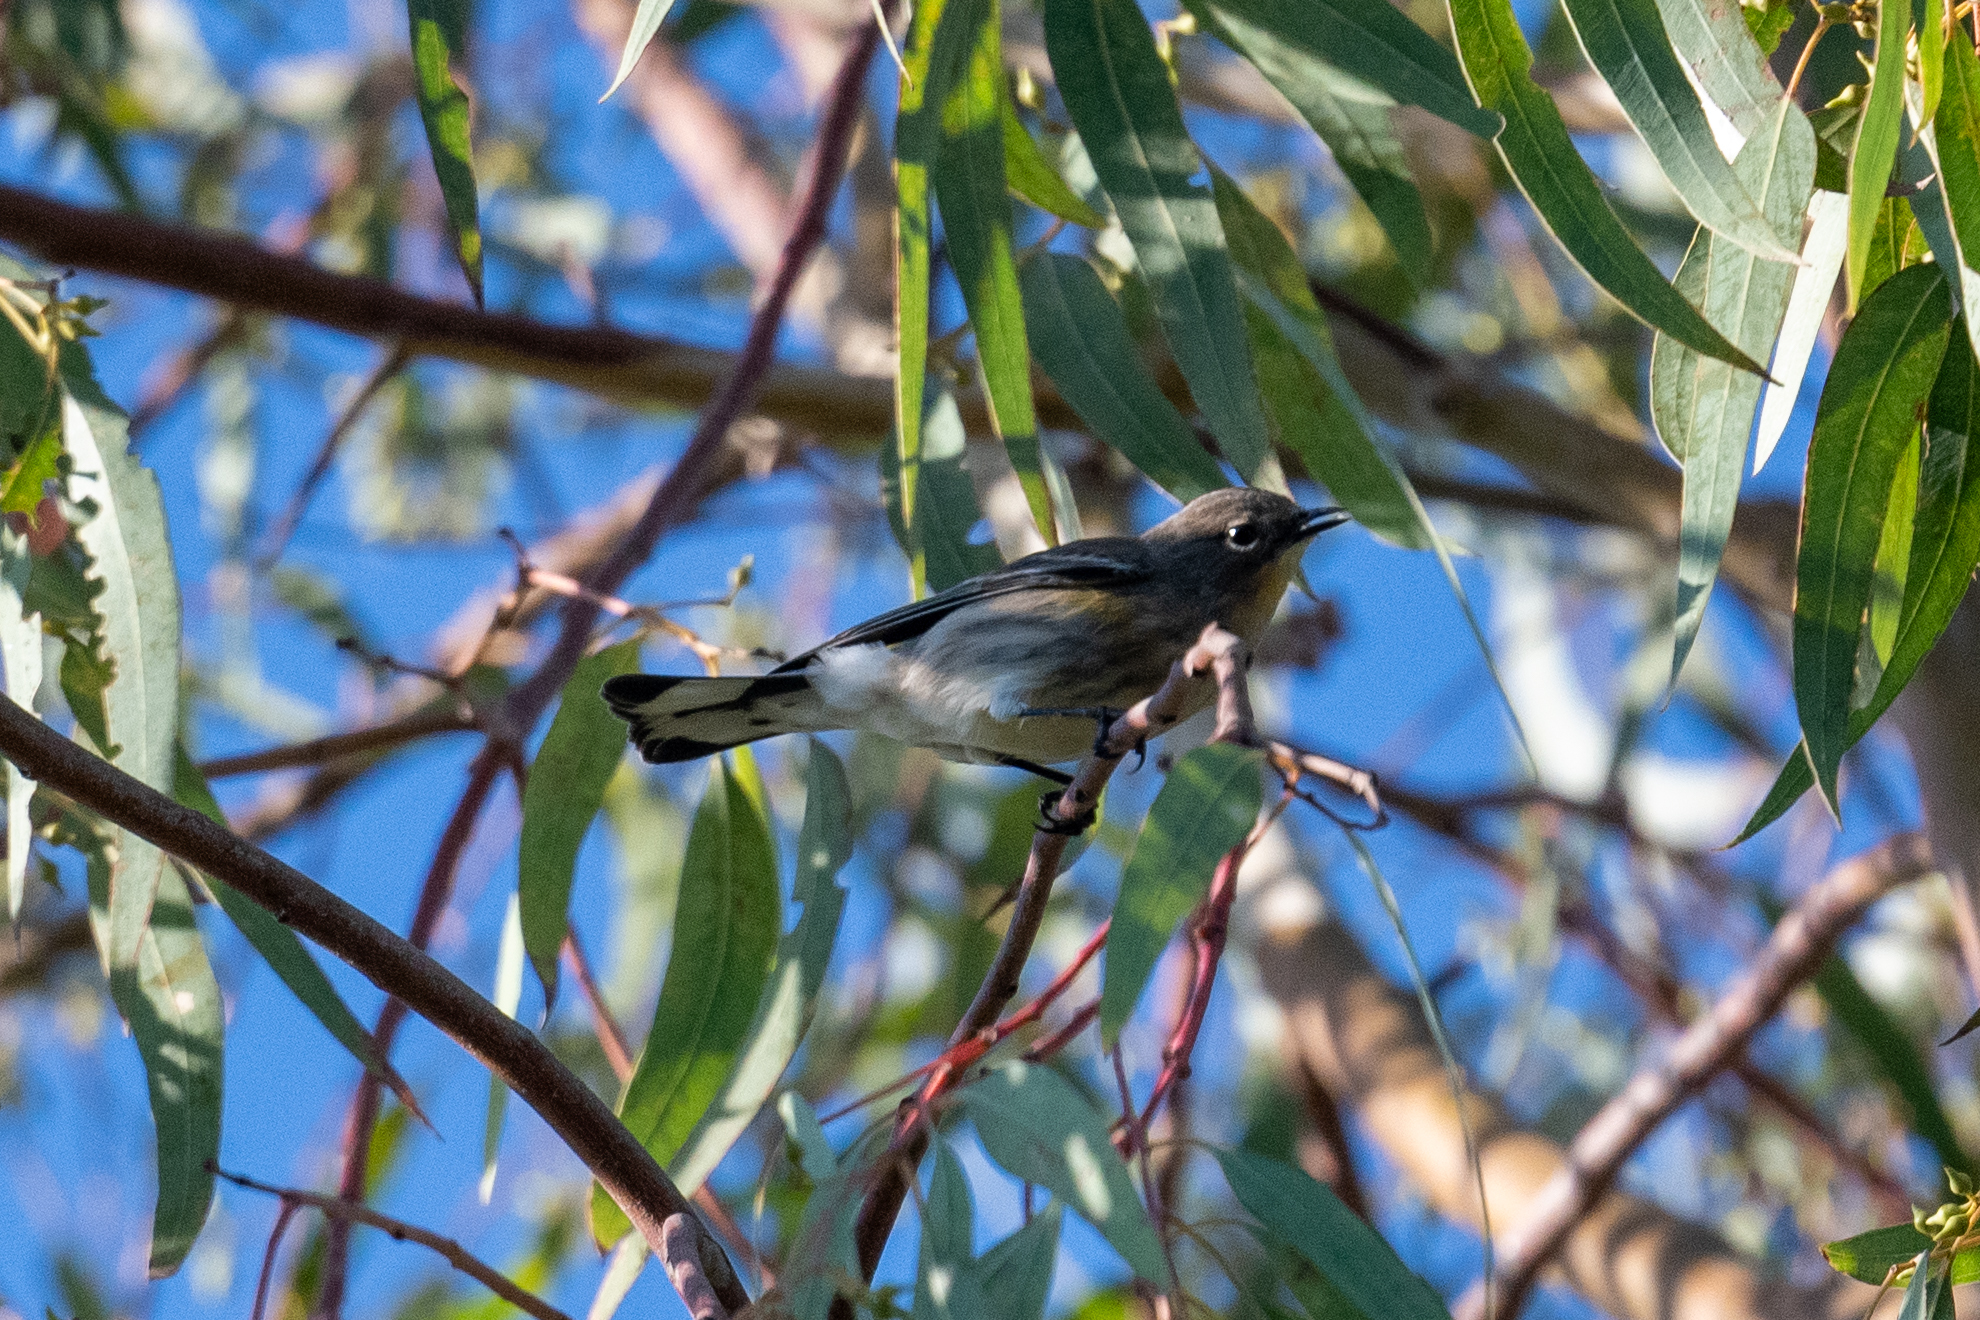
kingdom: Animalia
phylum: Chordata
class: Aves
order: Passeriformes
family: Parulidae
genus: Setophaga
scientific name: Setophaga coronata
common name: Myrtle warbler
